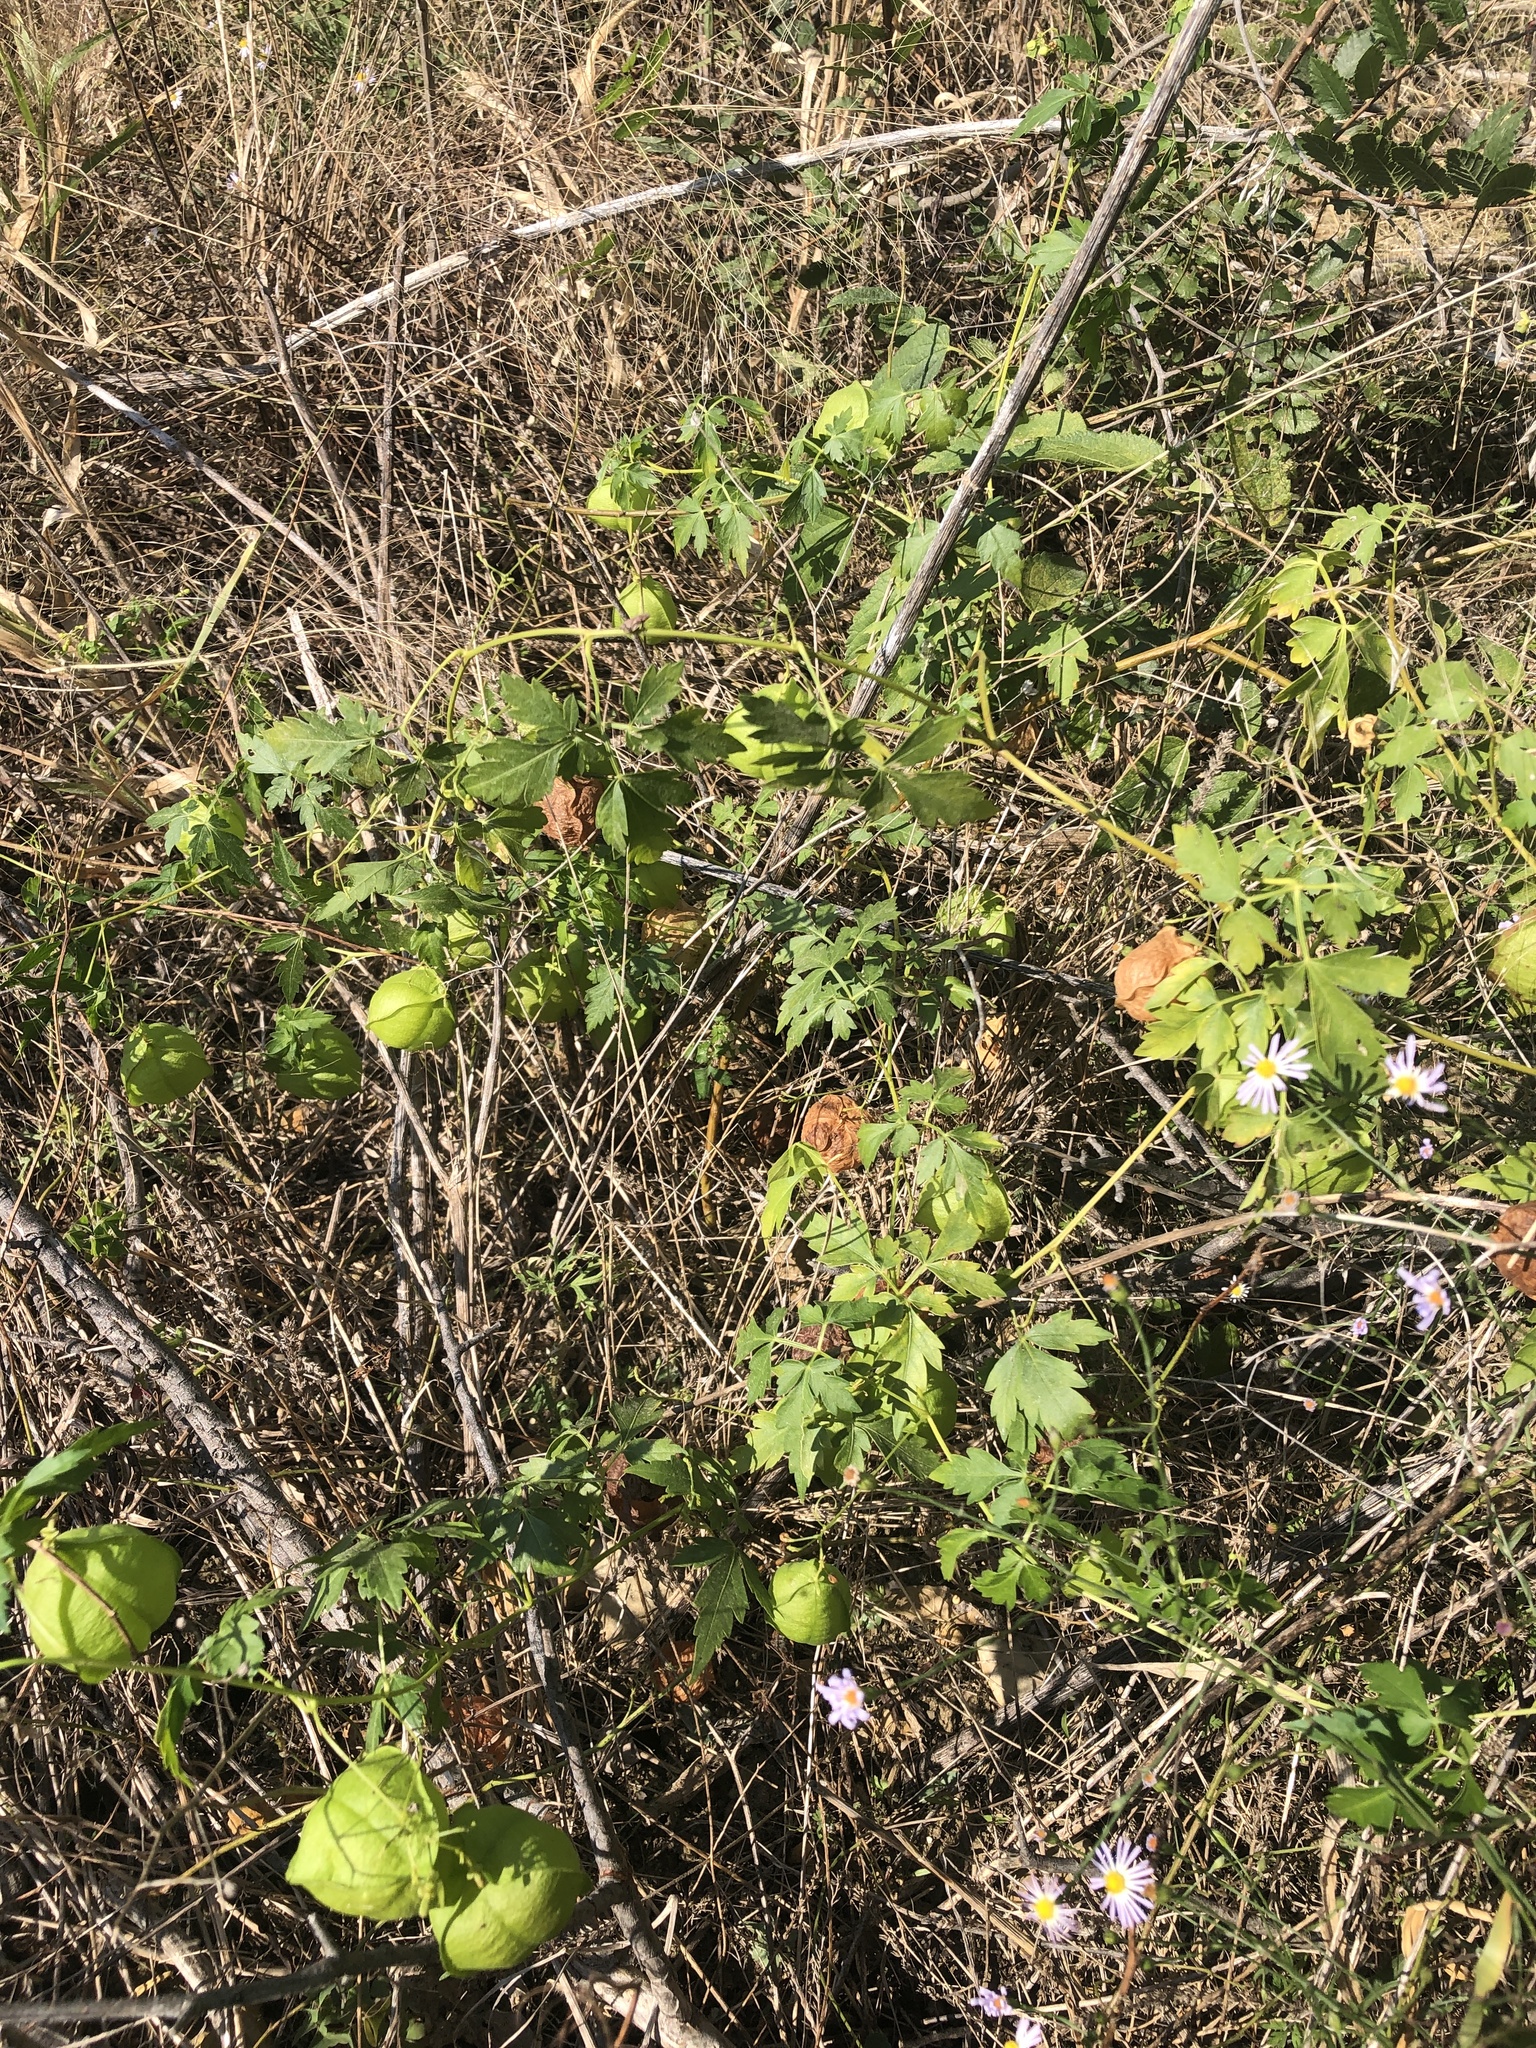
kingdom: Plantae
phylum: Tracheophyta
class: Magnoliopsida
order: Sapindales
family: Sapindaceae
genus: Cardiospermum
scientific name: Cardiospermum halicacabum
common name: Balloon vine
